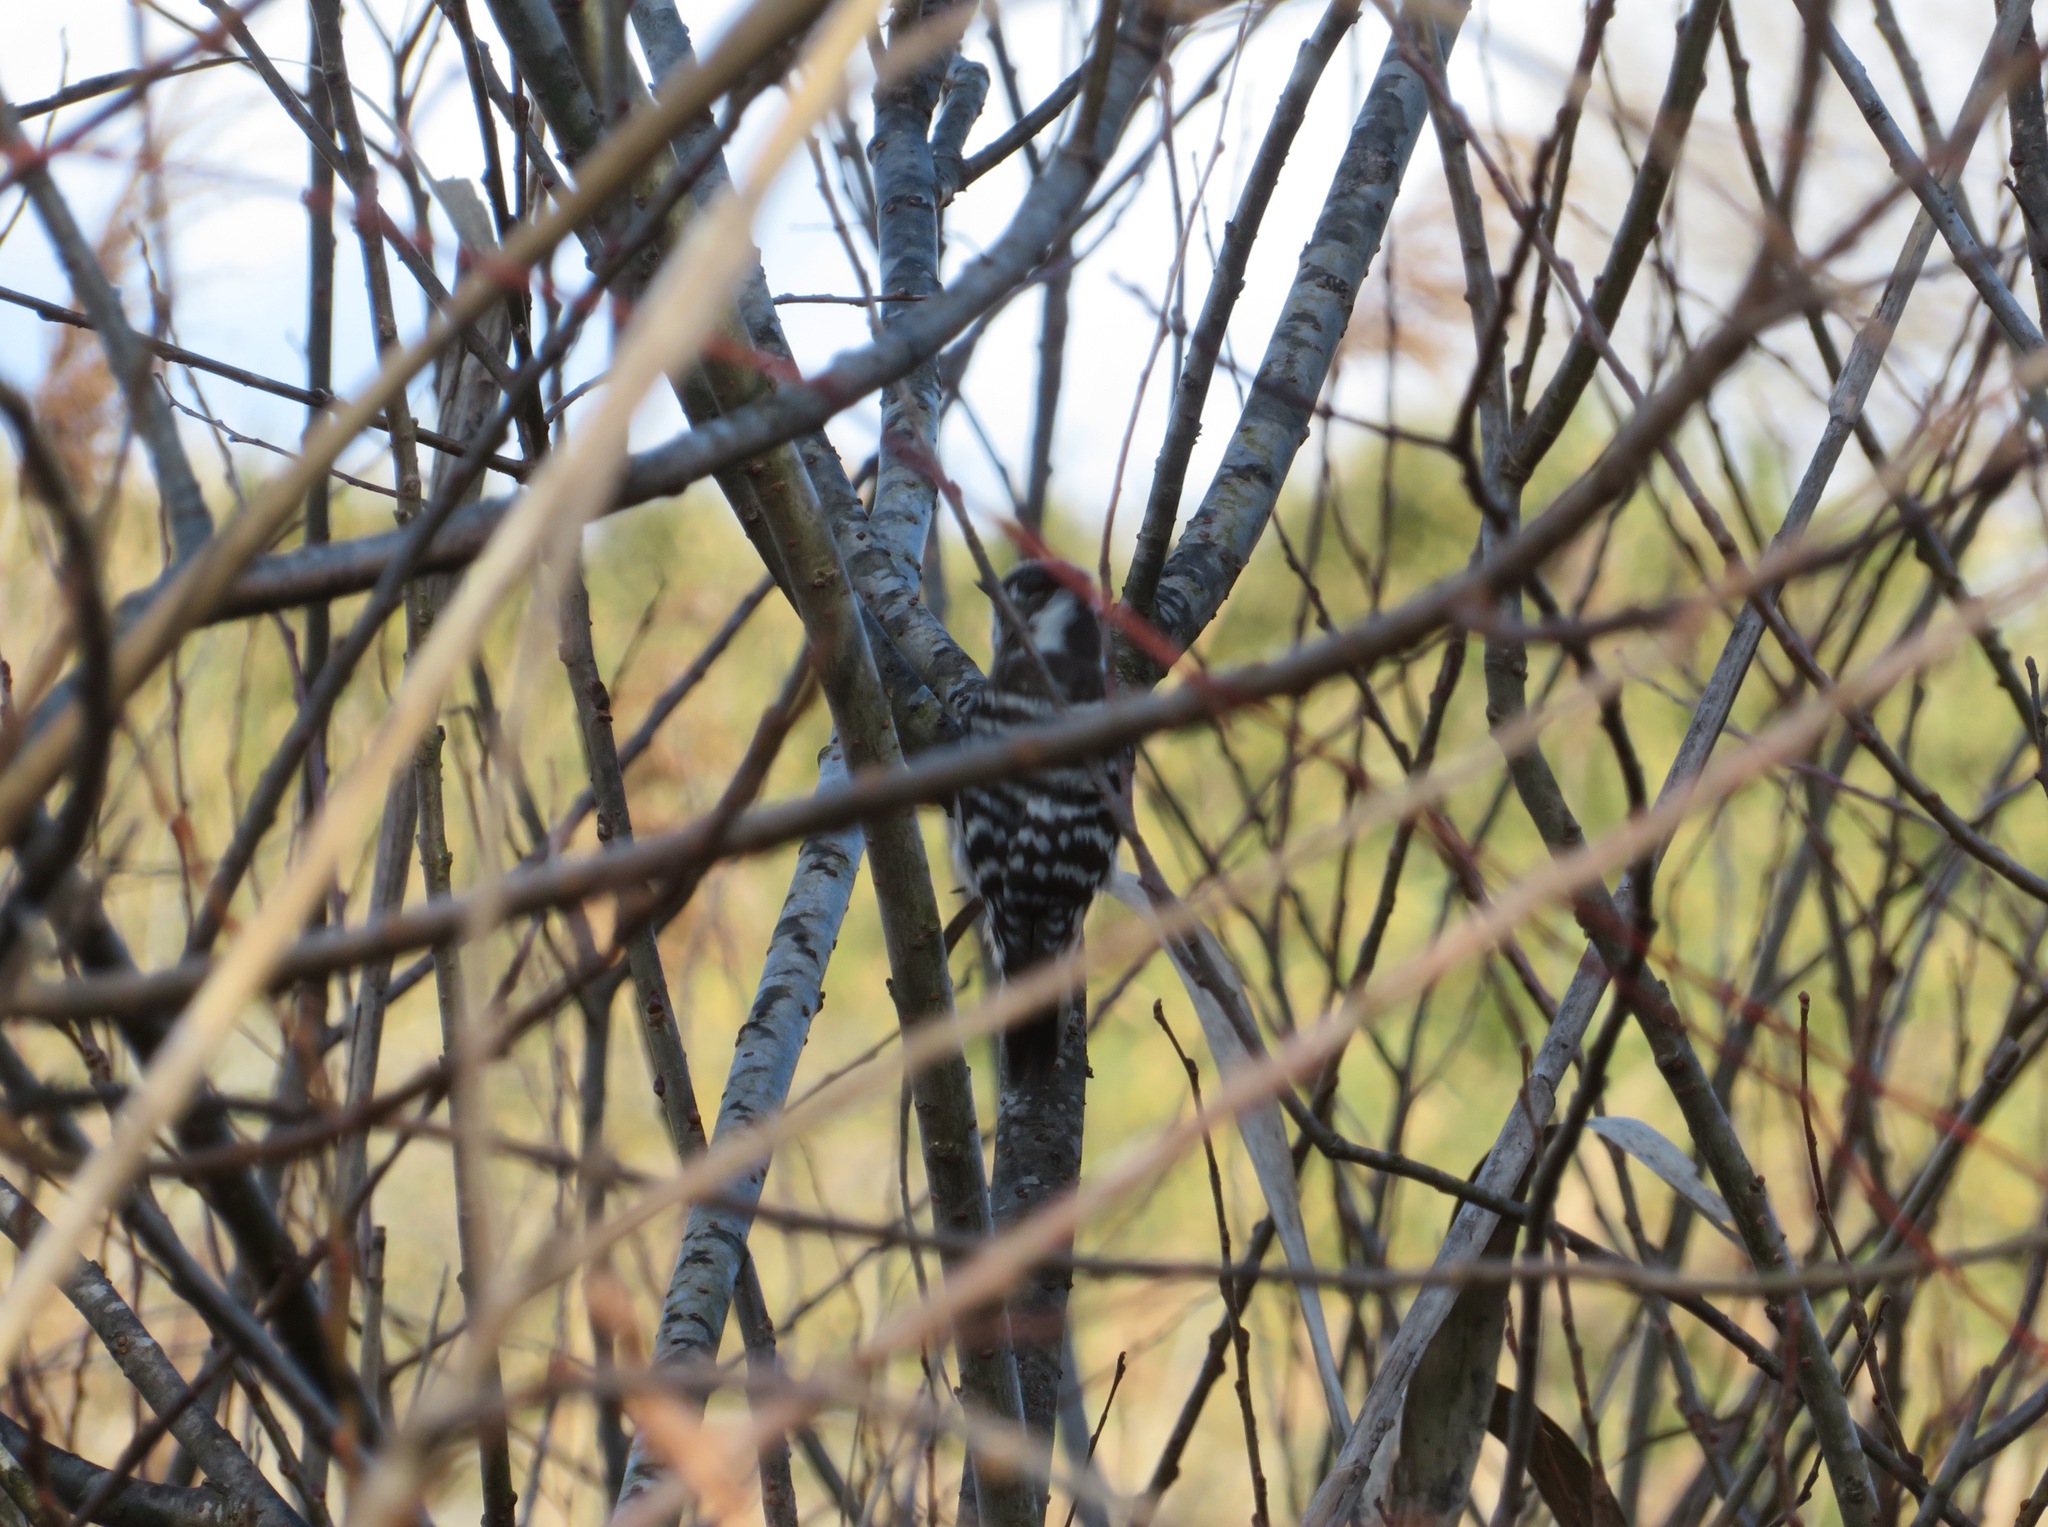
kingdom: Animalia
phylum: Chordata
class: Aves
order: Piciformes
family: Picidae
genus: Yungipicus
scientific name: Yungipicus kizuki
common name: Japanese pygmy woodpecker
